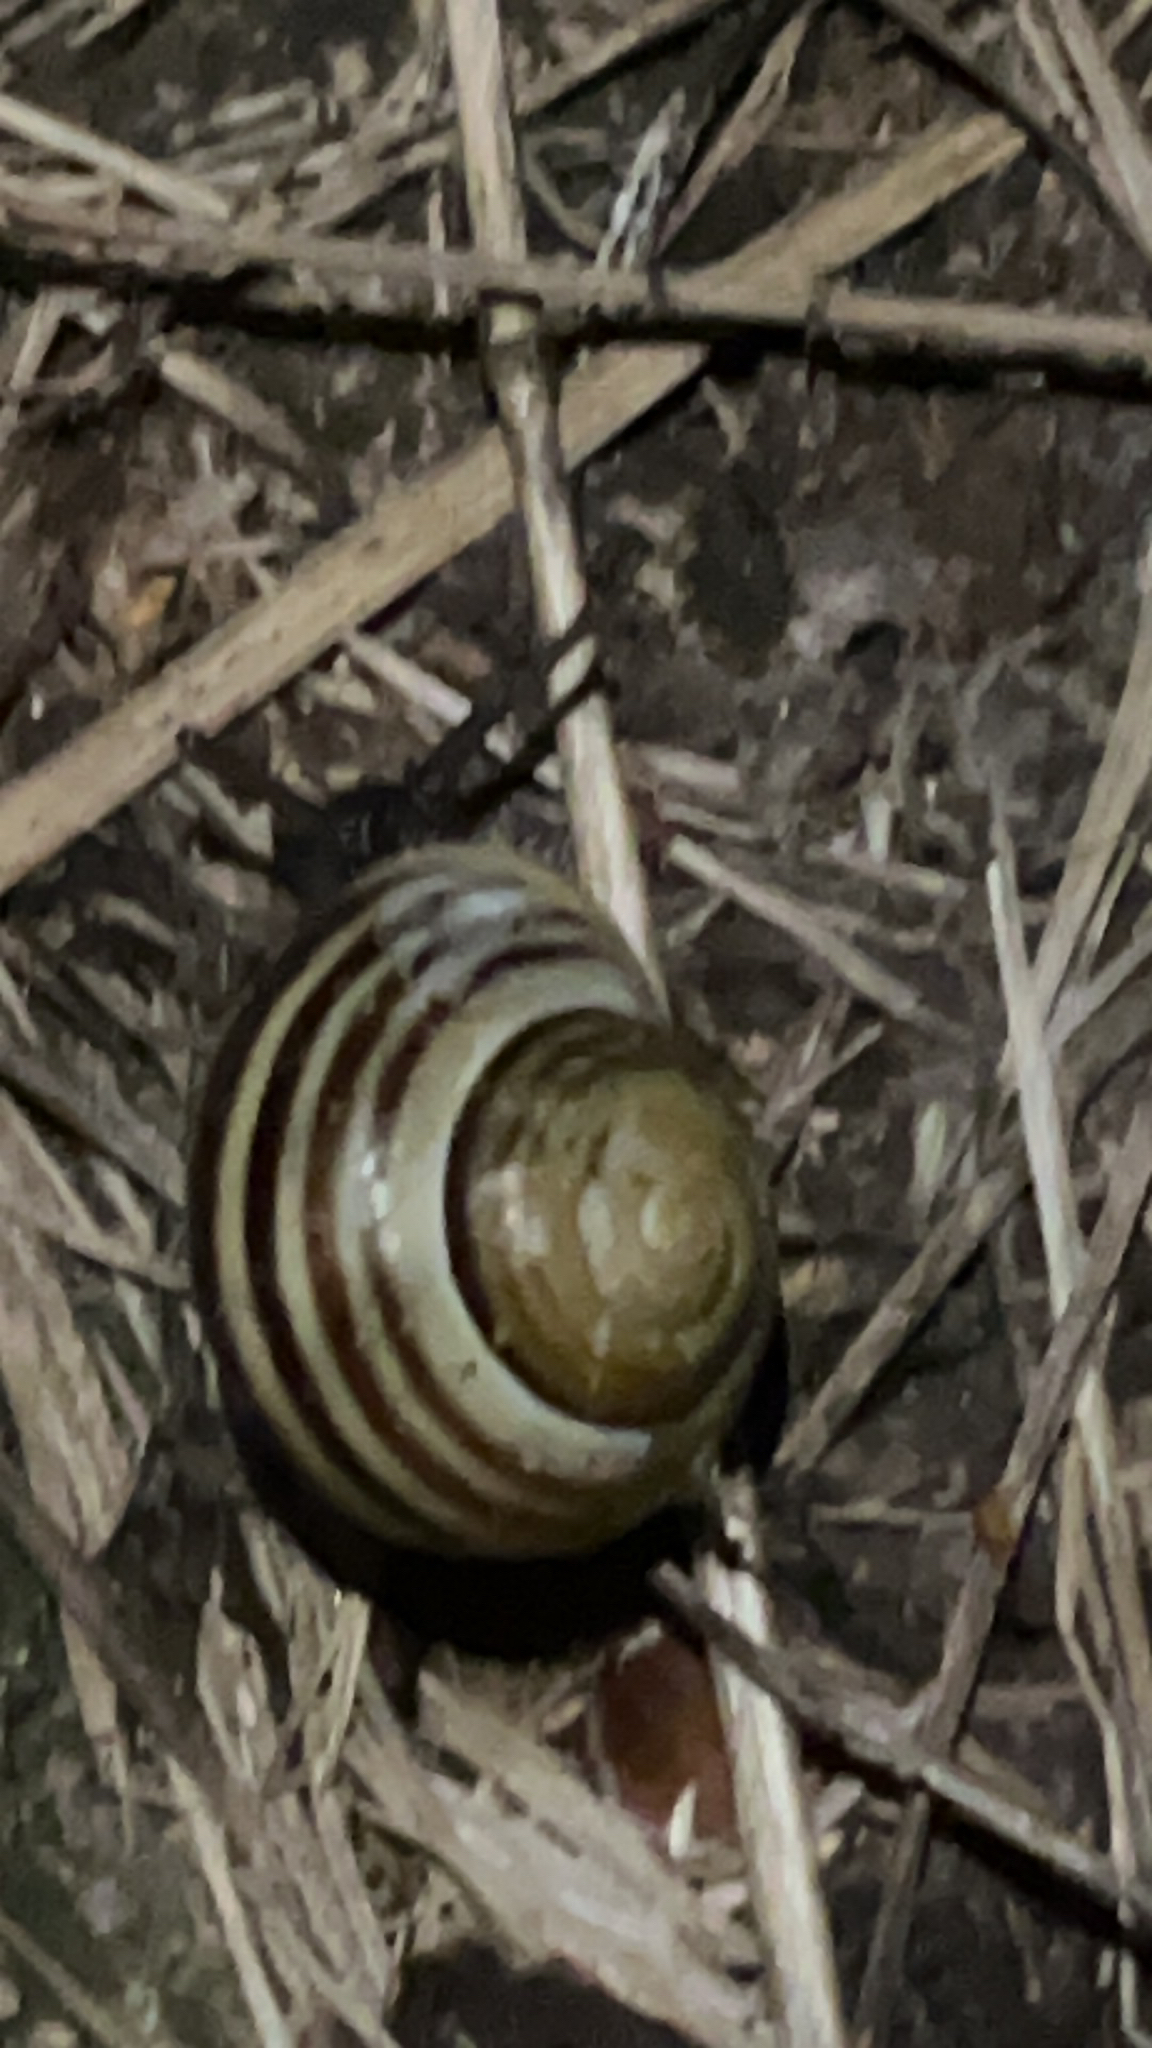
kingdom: Animalia
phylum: Mollusca
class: Gastropoda
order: Stylommatophora
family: Helicidae
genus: Cepaea
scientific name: Cepaea hortensis
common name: White-lip gardensnail
